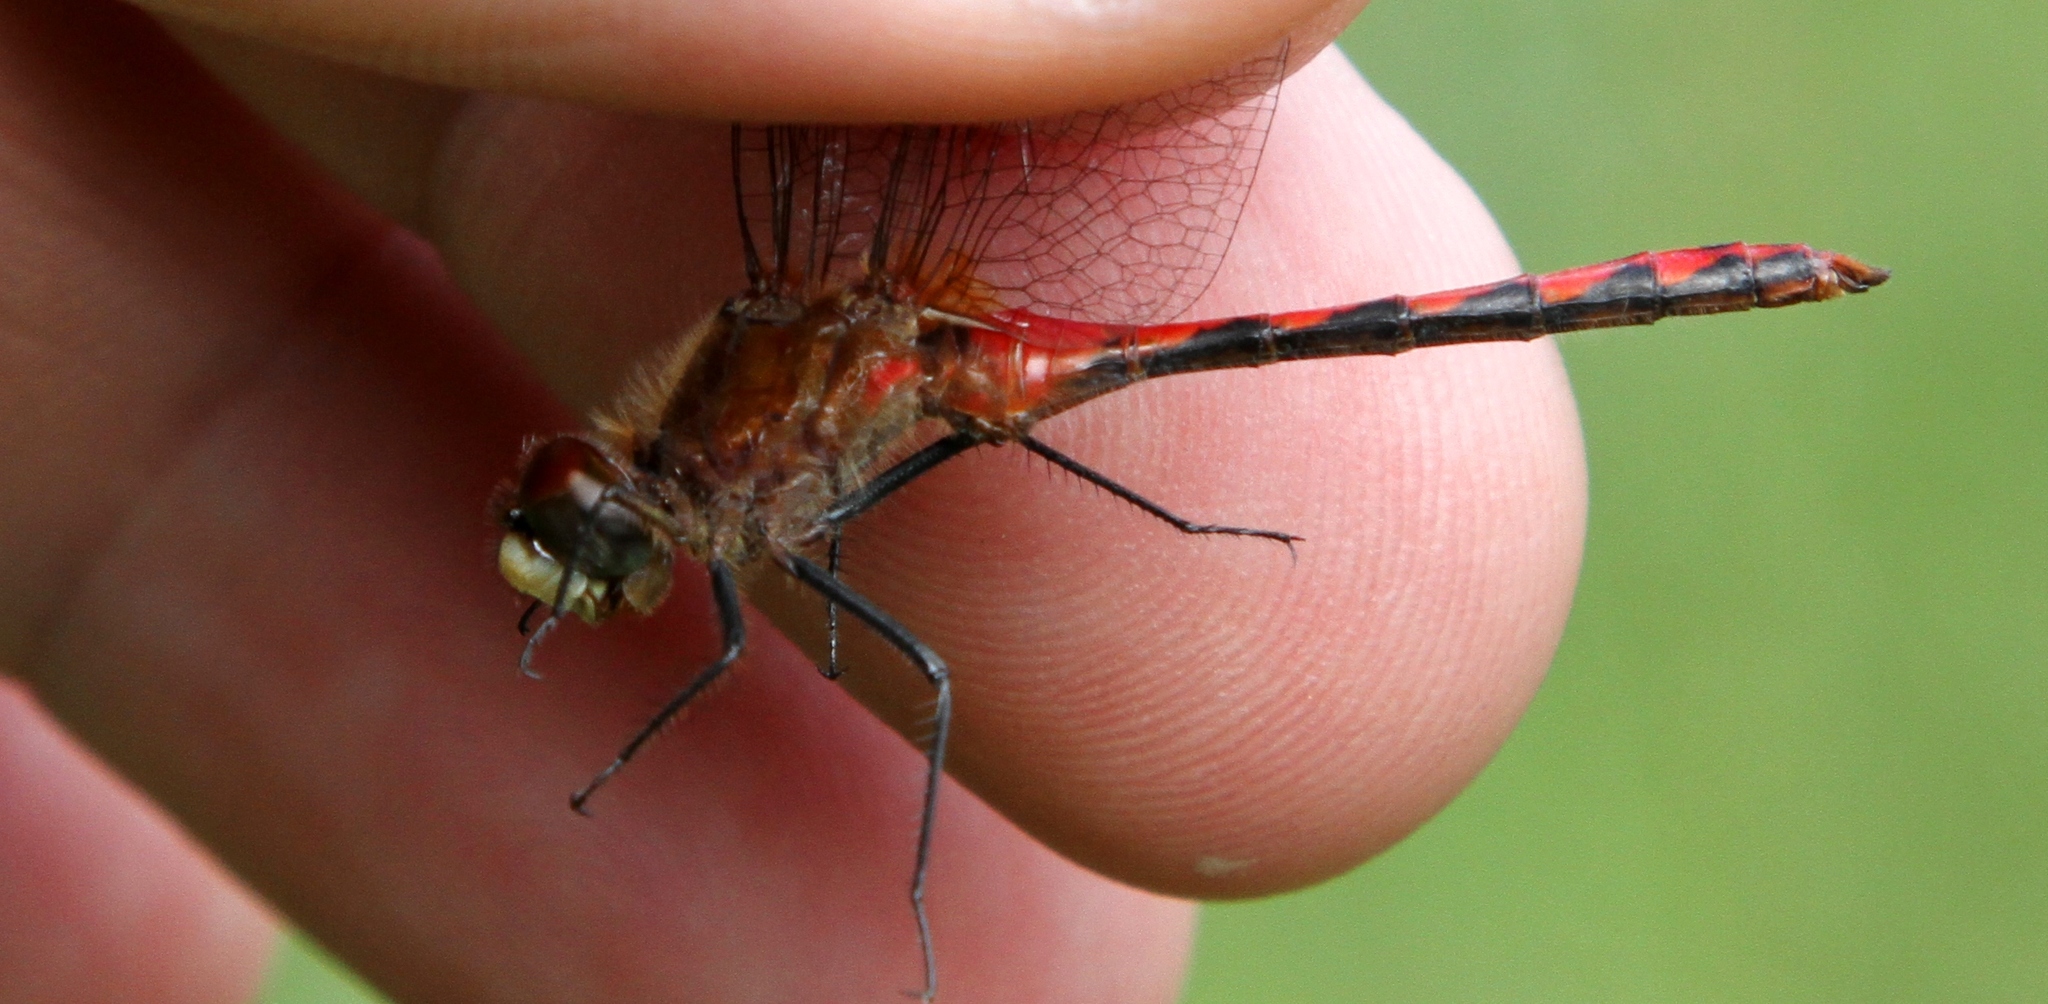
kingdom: Animalia
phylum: Arthropoda
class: Insecta
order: Odonata
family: Libellulidae
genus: Sympetrum
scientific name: Sympetrum obtrusum
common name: White-faced meadowhawk
